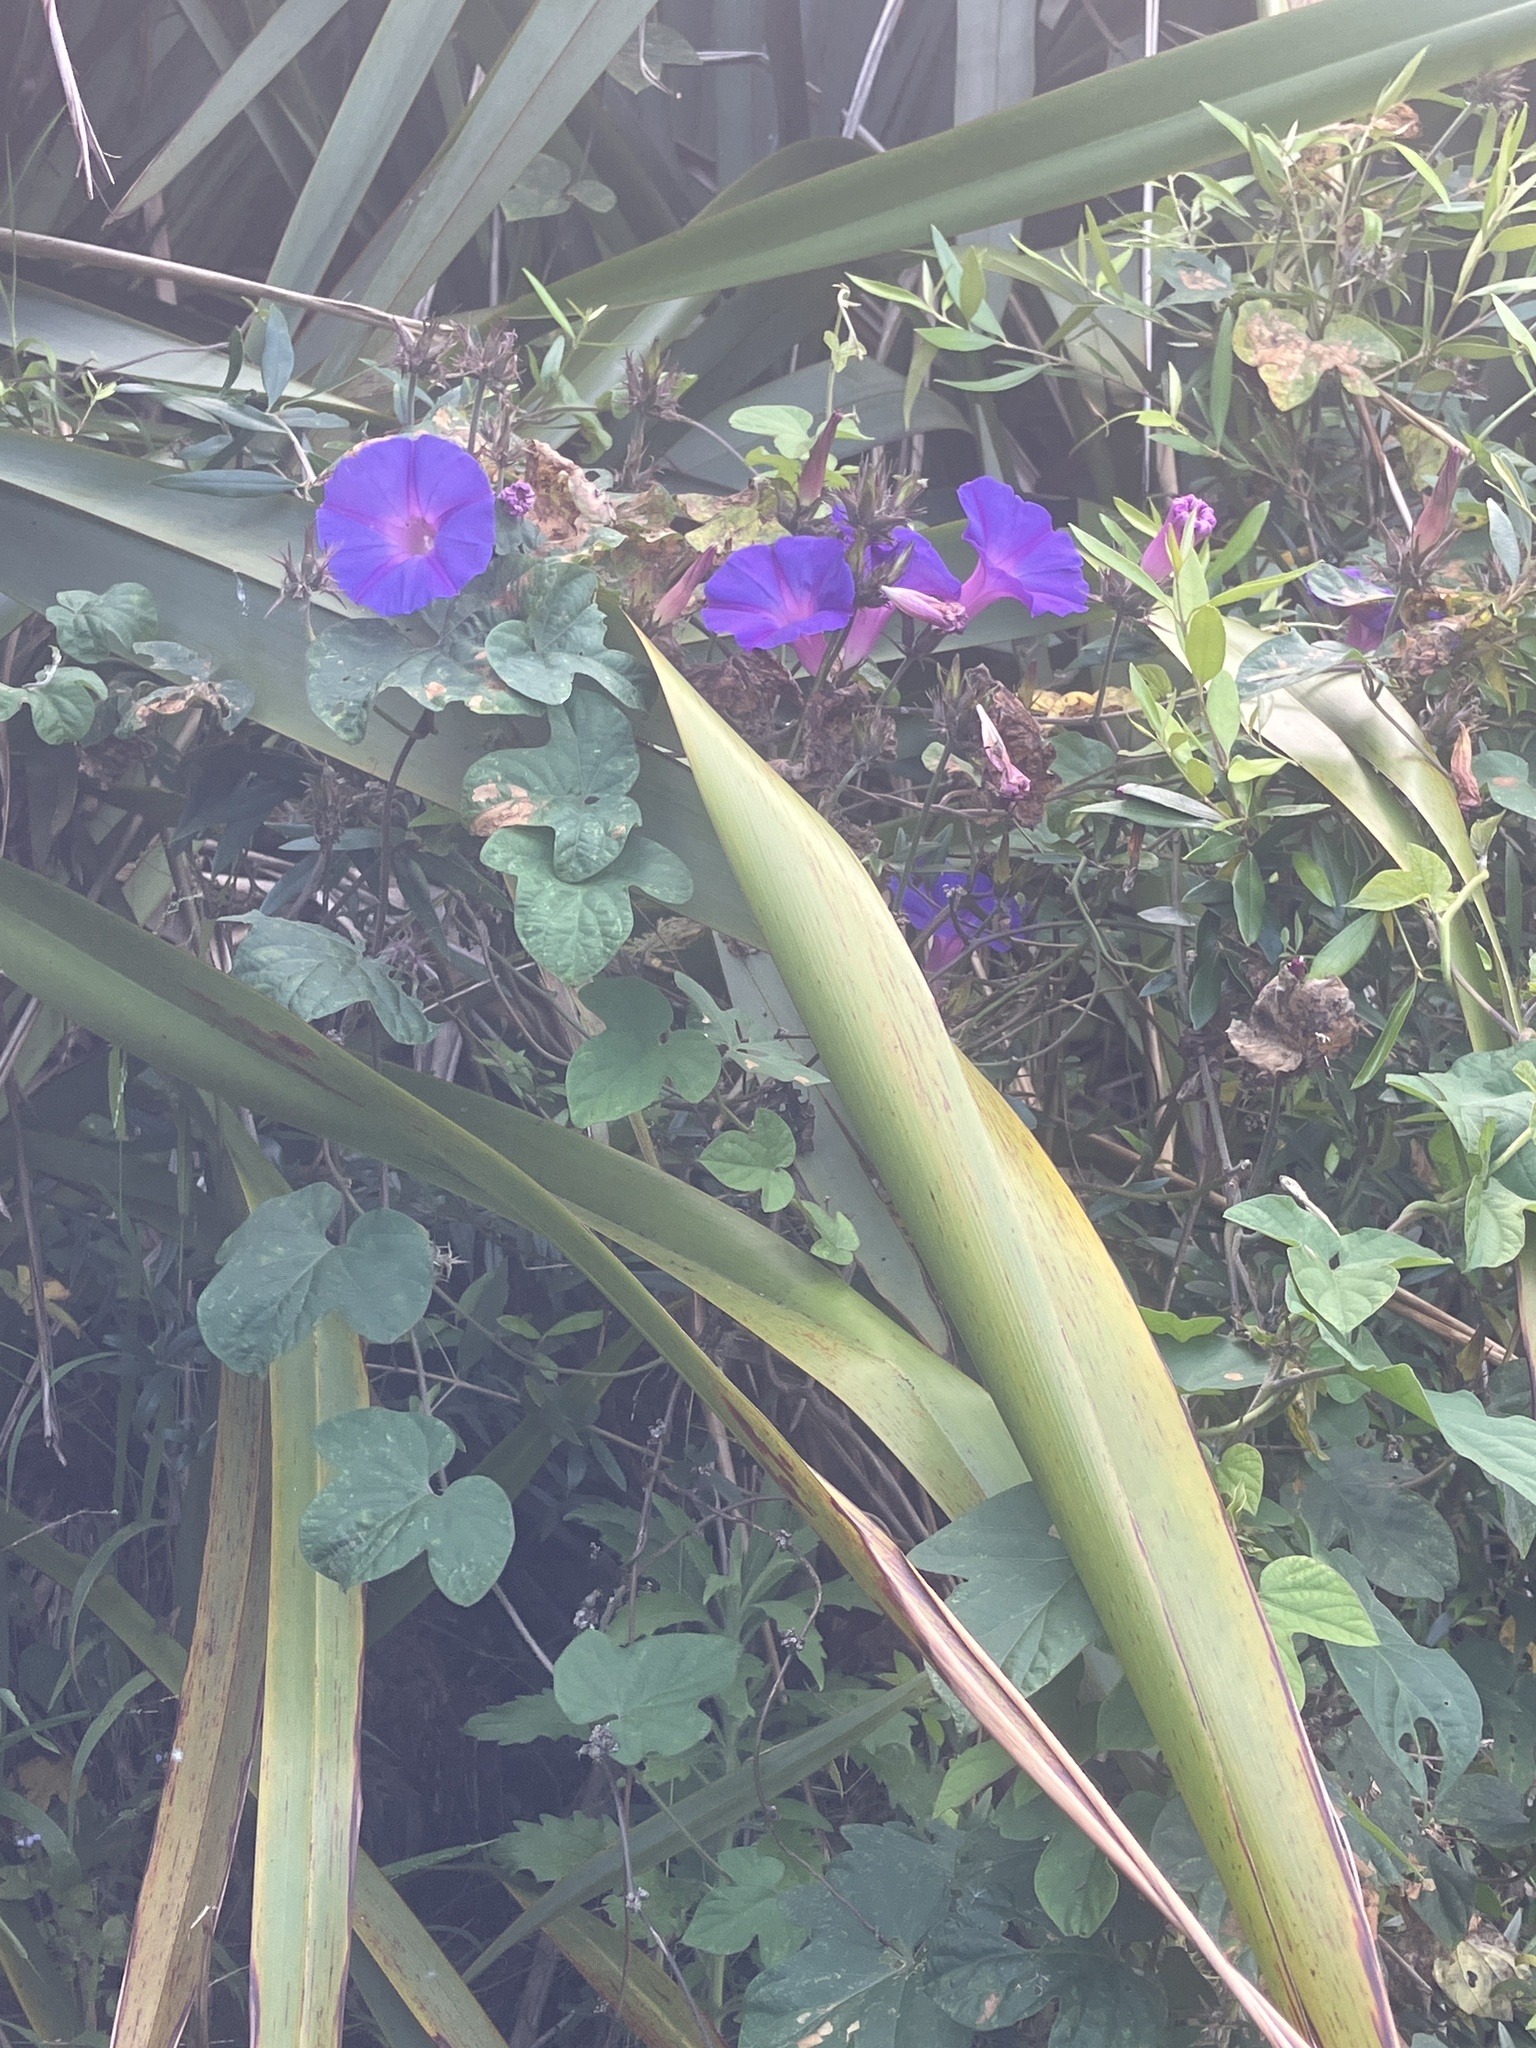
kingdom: Plantae
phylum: Tracheophyta
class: Magnoliopsida
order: Solanales
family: Convolvulaceae
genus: Ipomoea
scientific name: Ipomoea indica
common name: Blue dawnflower
